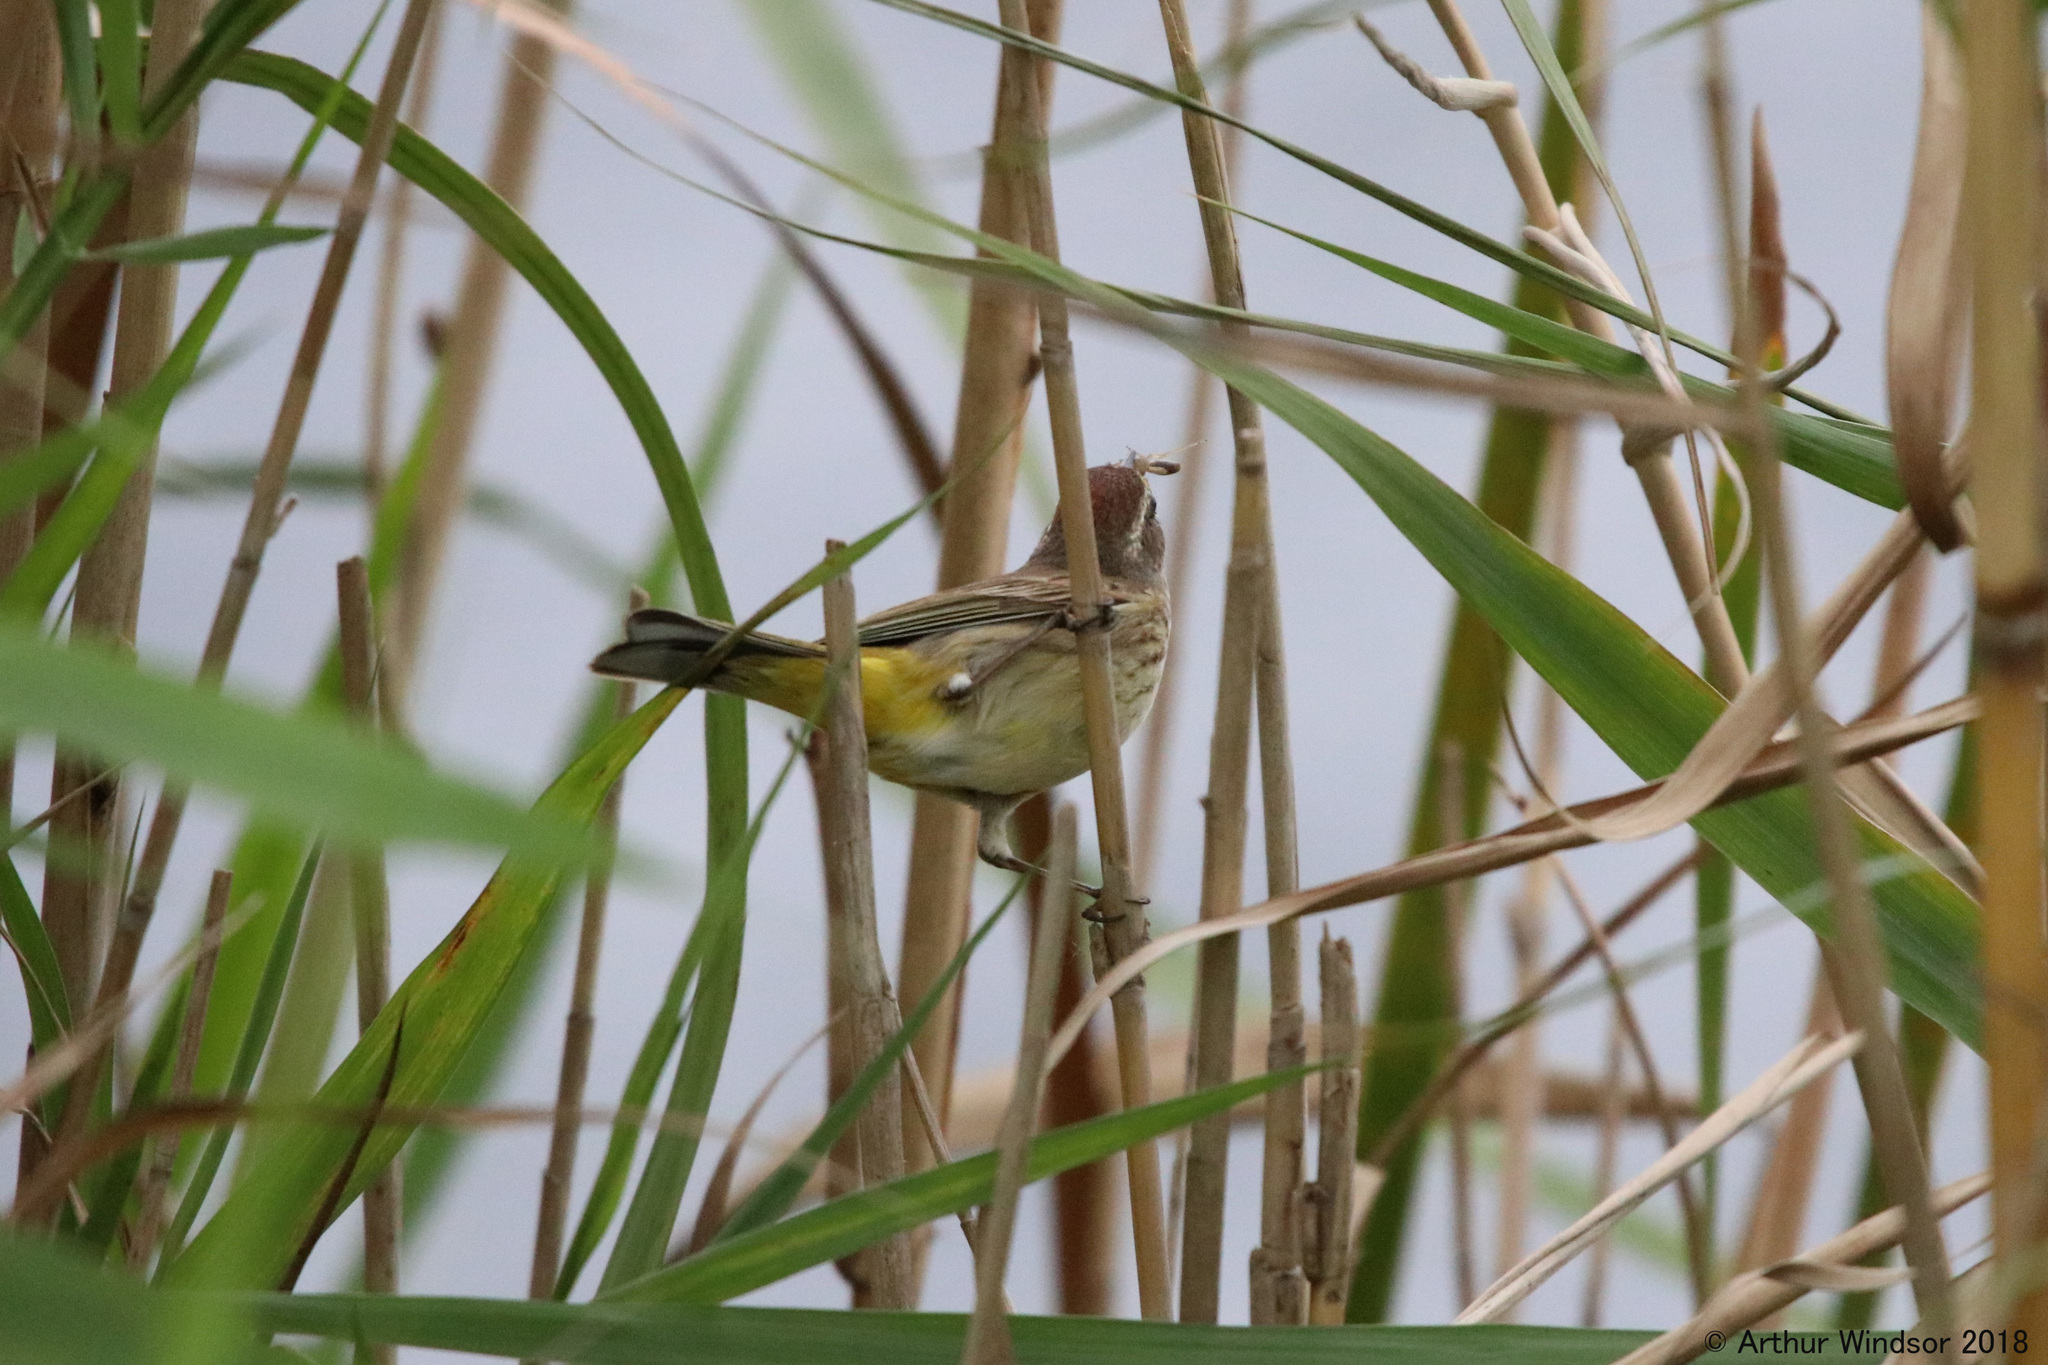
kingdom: Animalia
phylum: Chordata
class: Aves
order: Passeriformes
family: Parulidae
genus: Setophaga
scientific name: Setophaga palmarum
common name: Palm warbler
